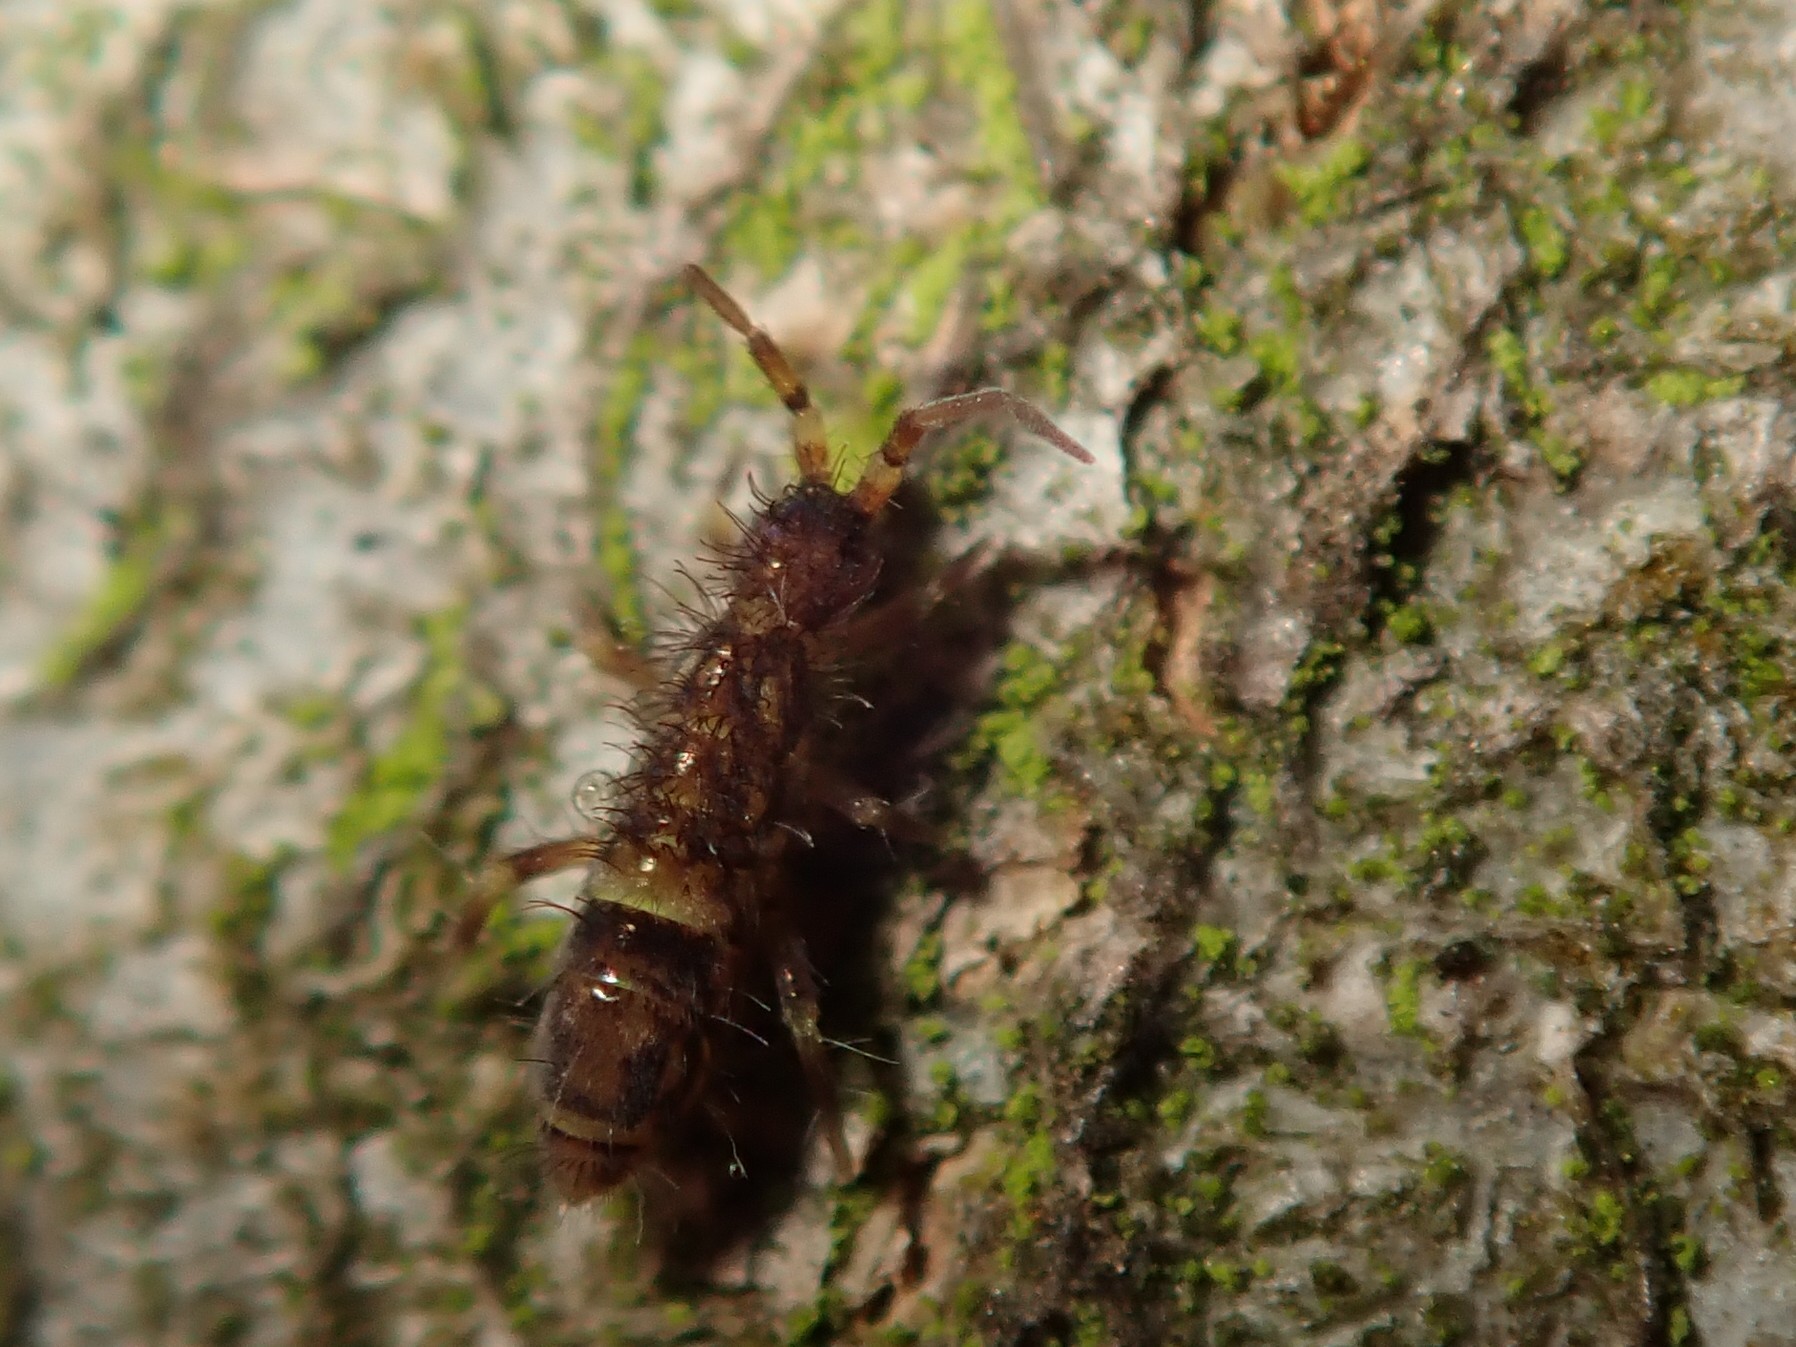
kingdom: Animalia
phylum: Arthropoda
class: Collembola
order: Entomobryomorpha
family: Orchesellidae
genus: Orchesella
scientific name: Orchesella cincta
